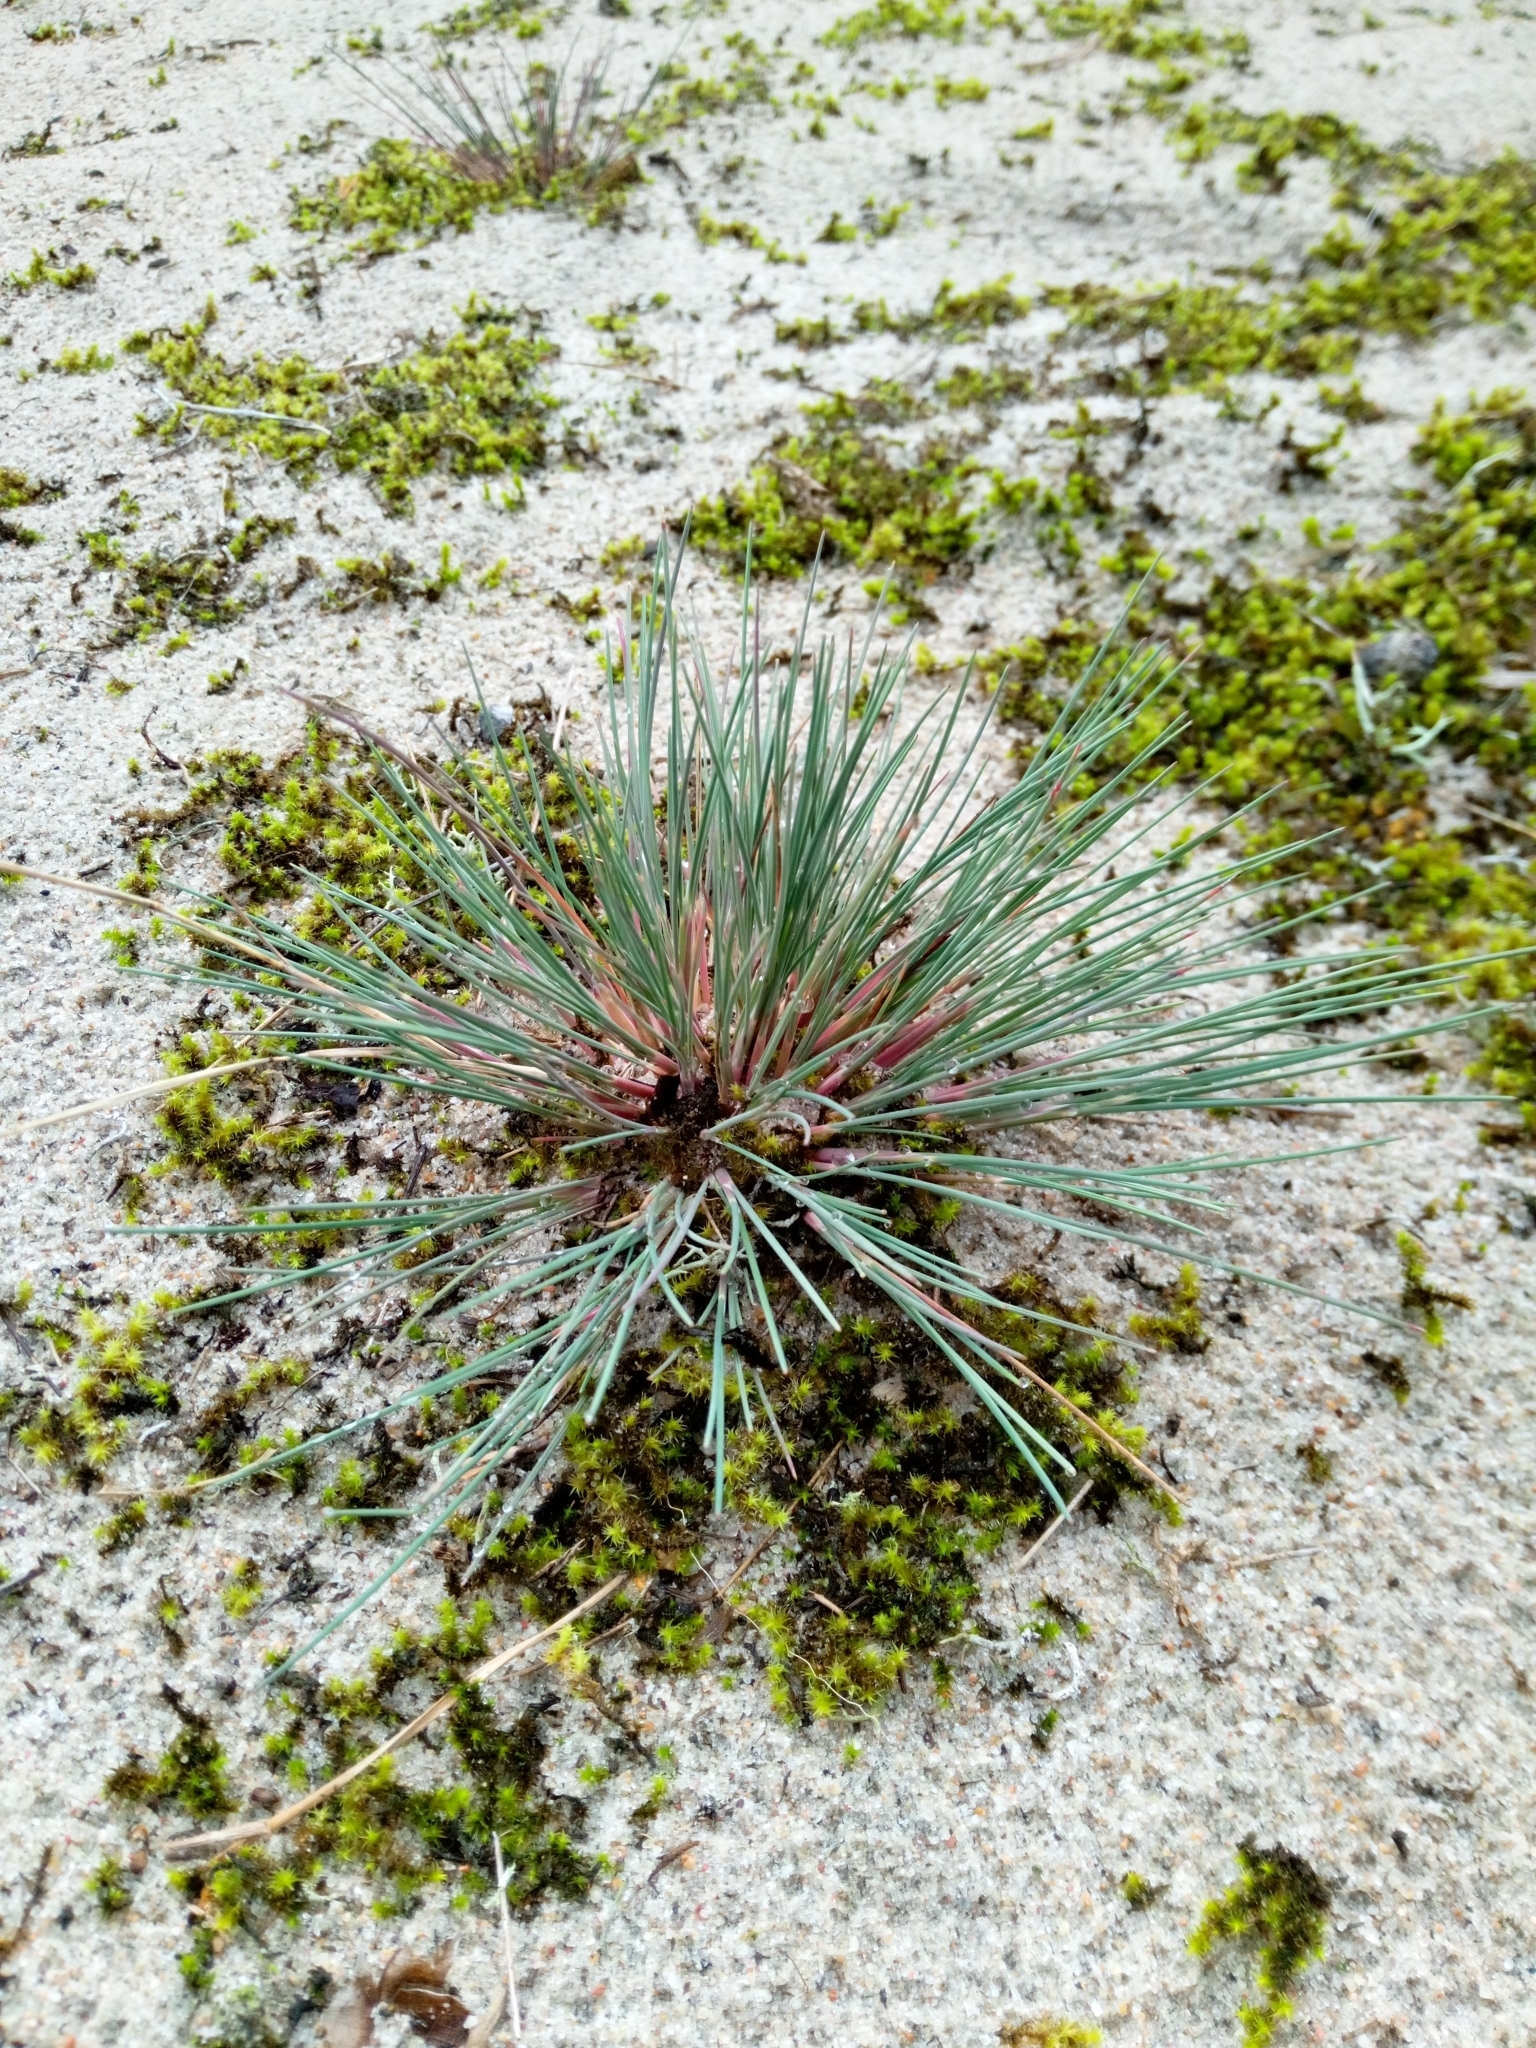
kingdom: Plantae
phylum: Tracheophyta
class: Liliopsida
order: Poales
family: Poaceae
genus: Corynephorus
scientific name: Corynephorus canescens
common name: Grey hair-grass
